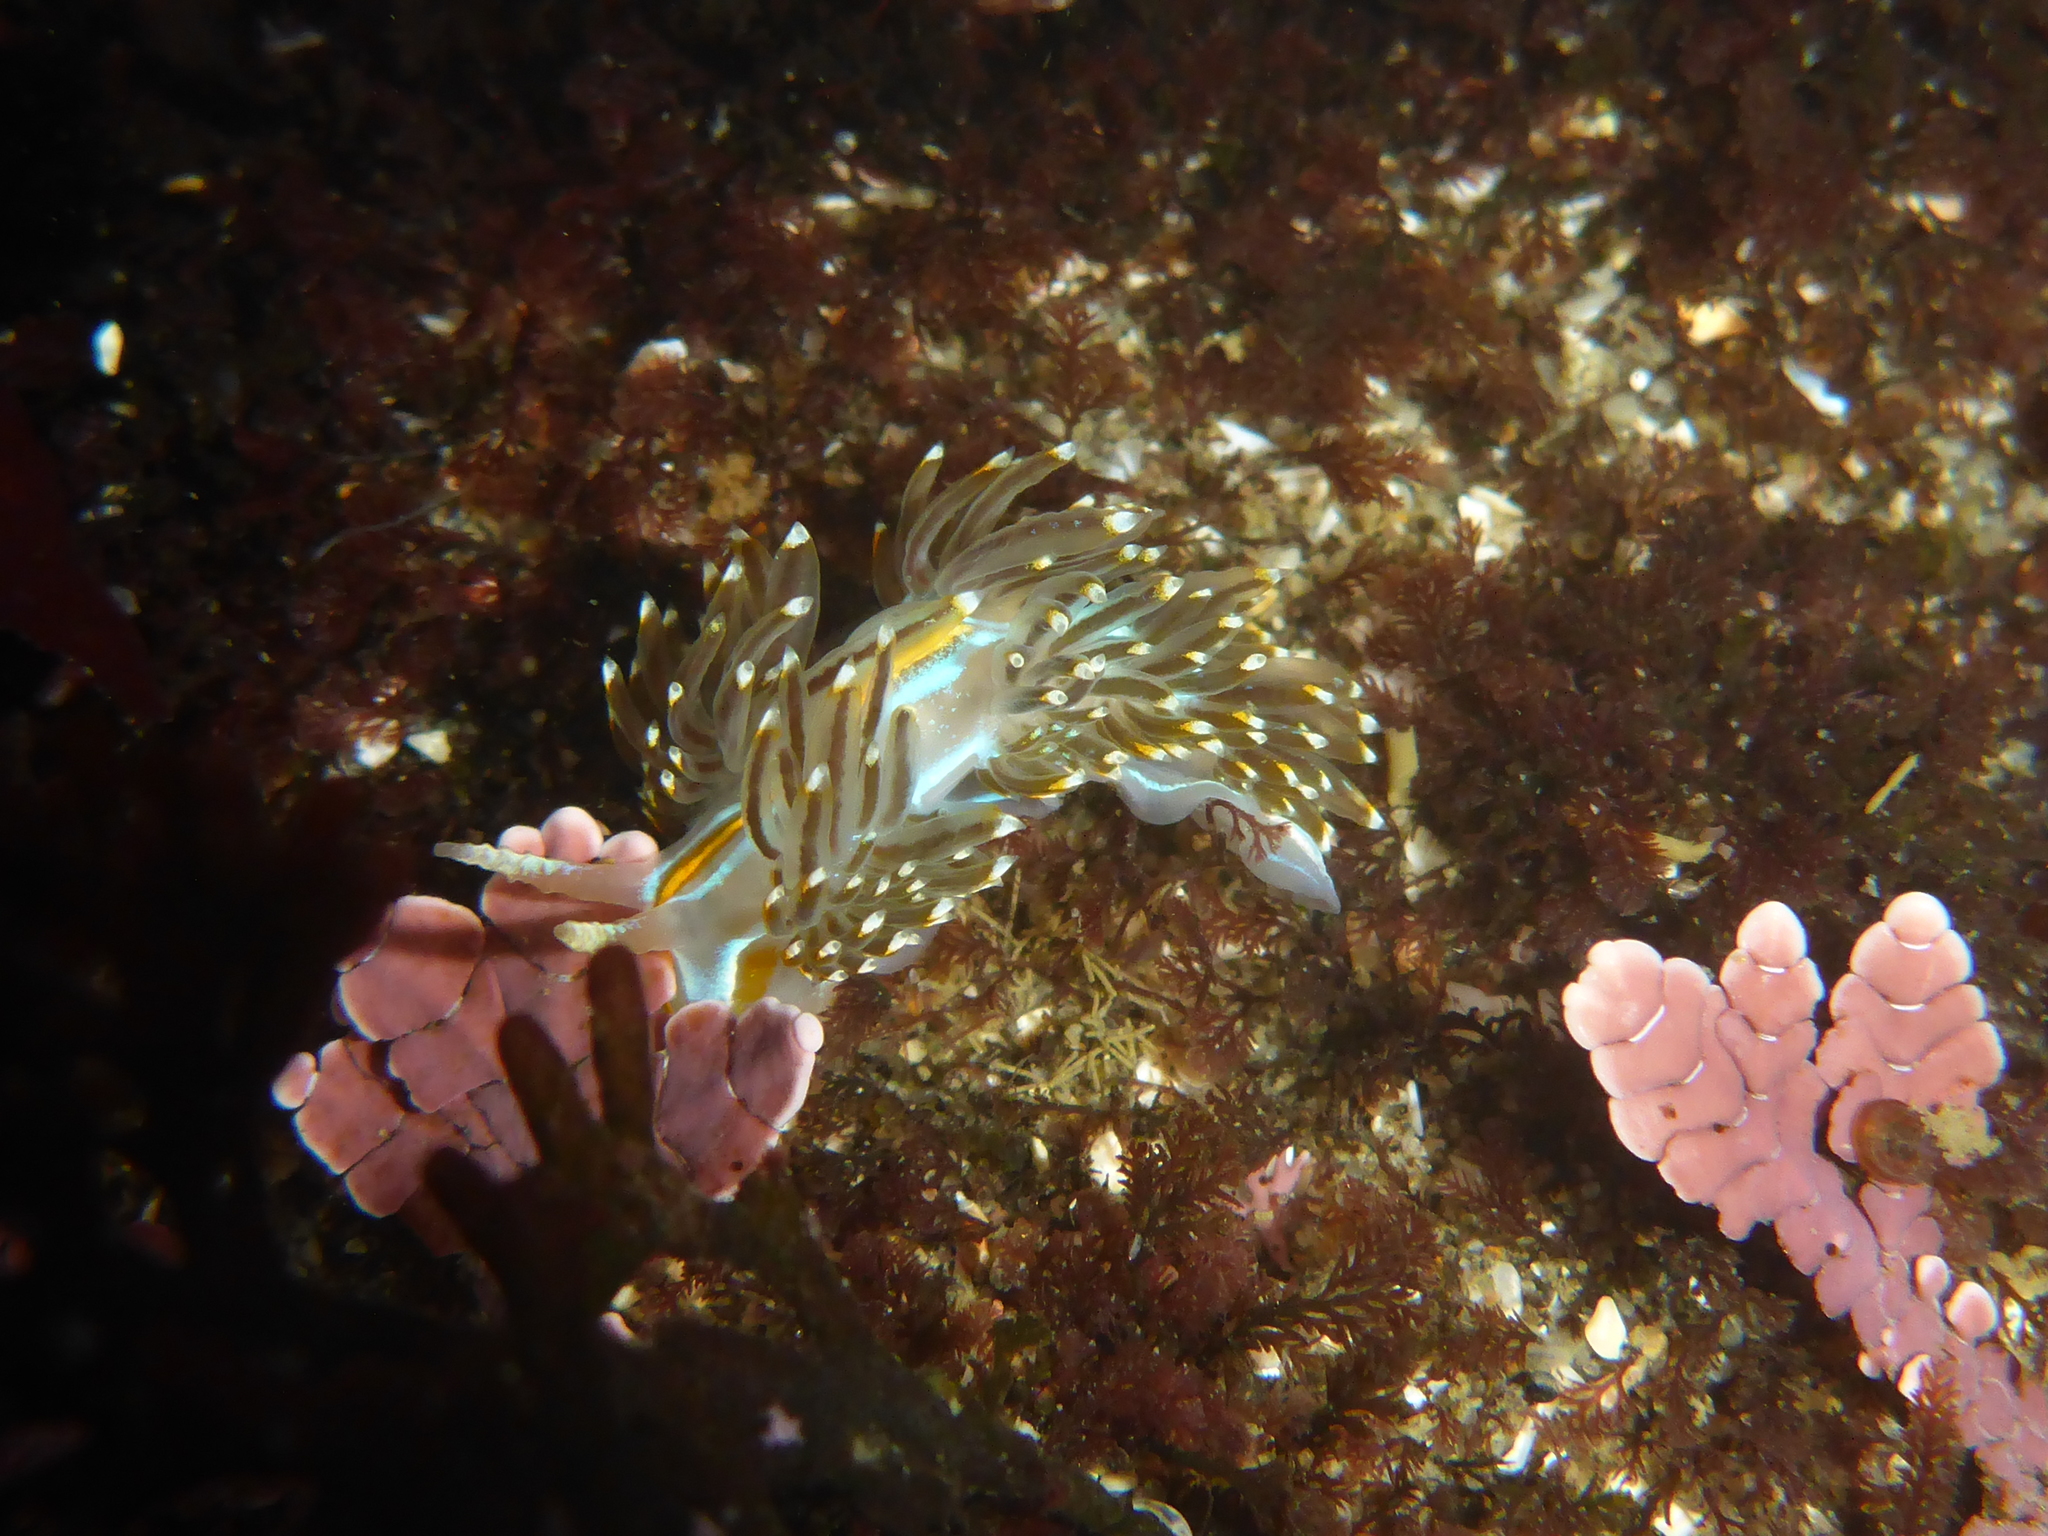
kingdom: Animalia
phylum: Mollusca
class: Gastropoda
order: Nudibranchia
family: Myrrhinidae
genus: Hermissenda
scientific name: Hermissenda opalescens
